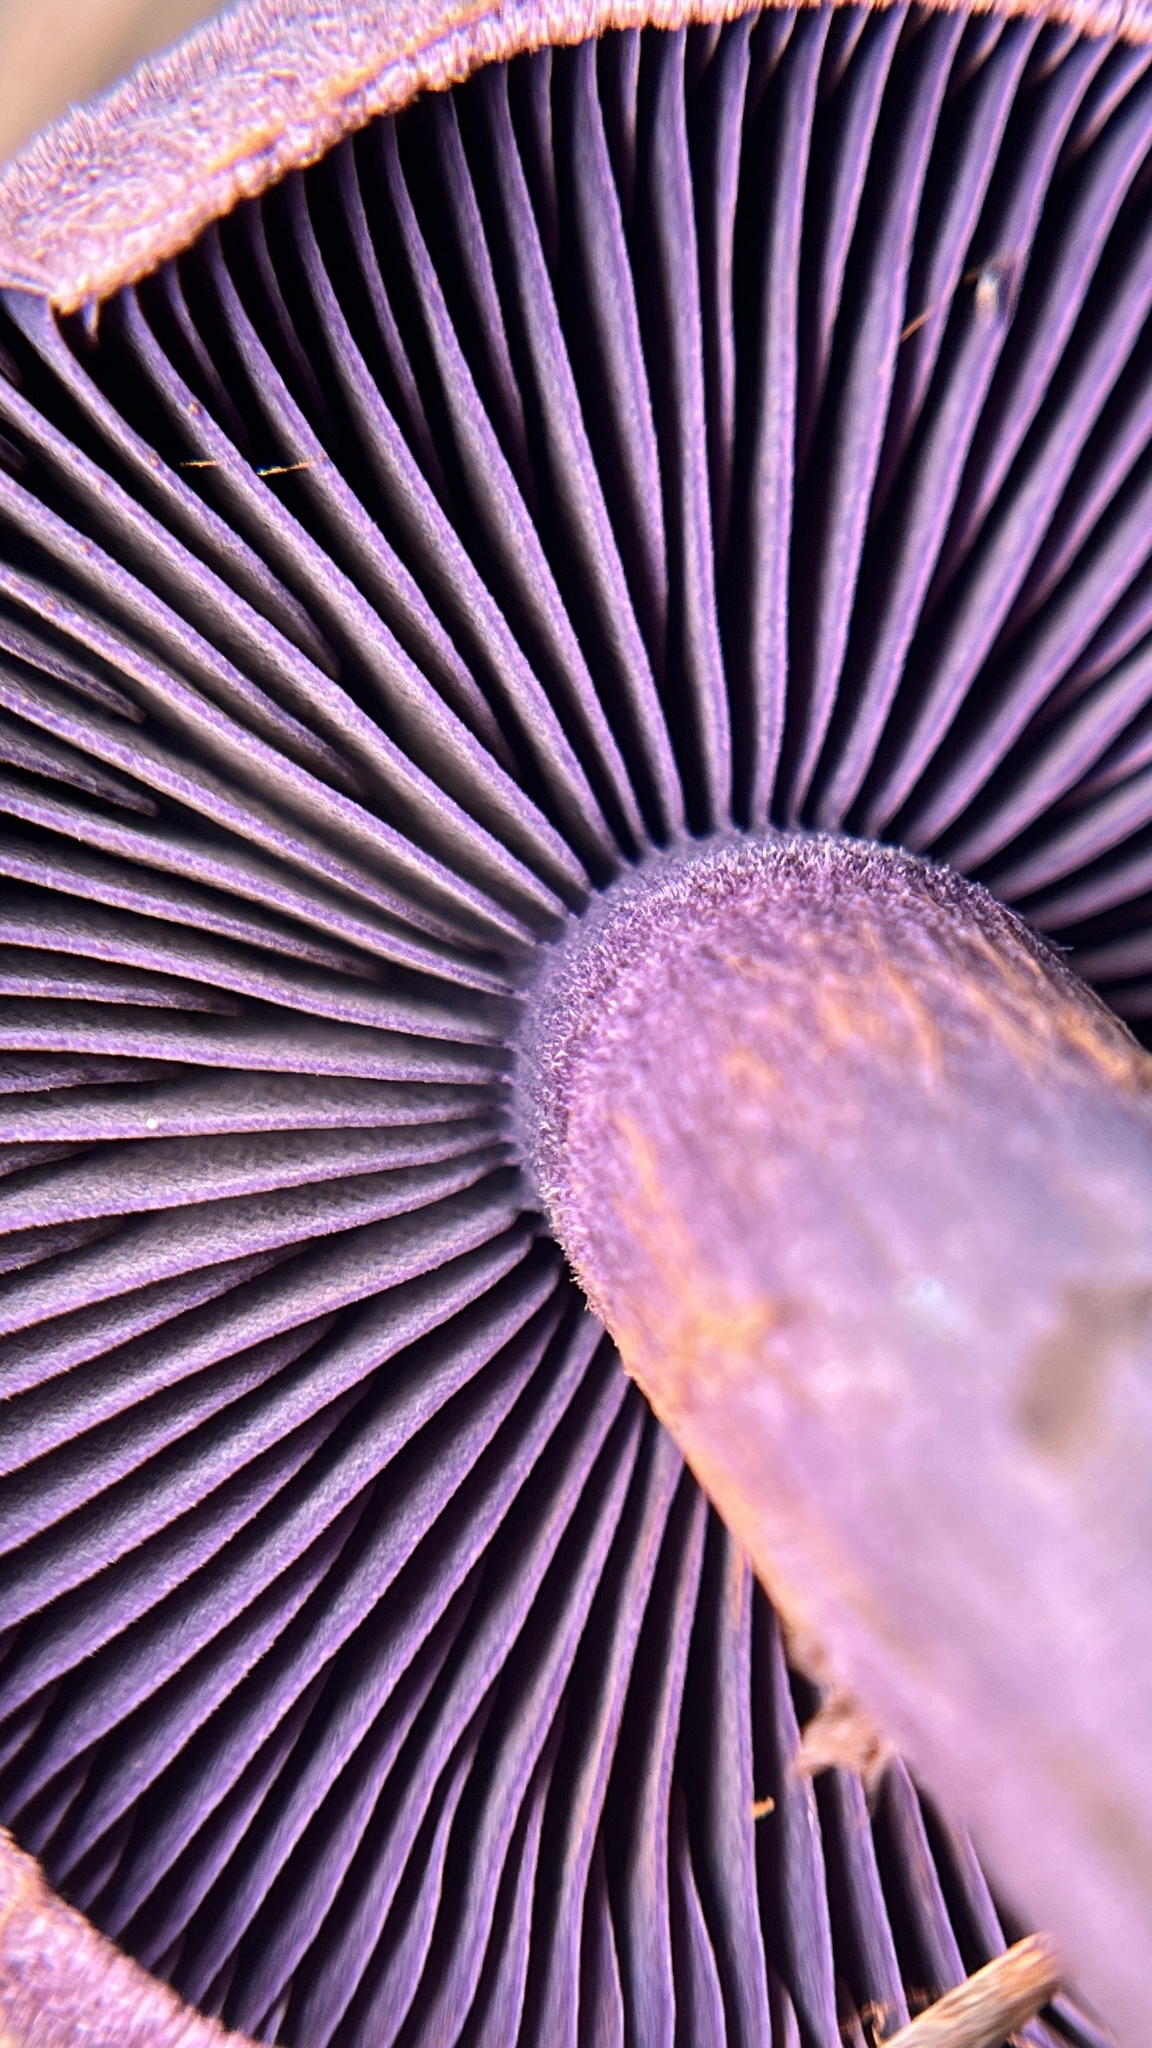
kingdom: Fungi
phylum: Basidiomycota
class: Agaricomycetes
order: Agaricales
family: Cortinariaceae
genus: Cortinarius
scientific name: Cortinarius violaceus
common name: Violet webcap
